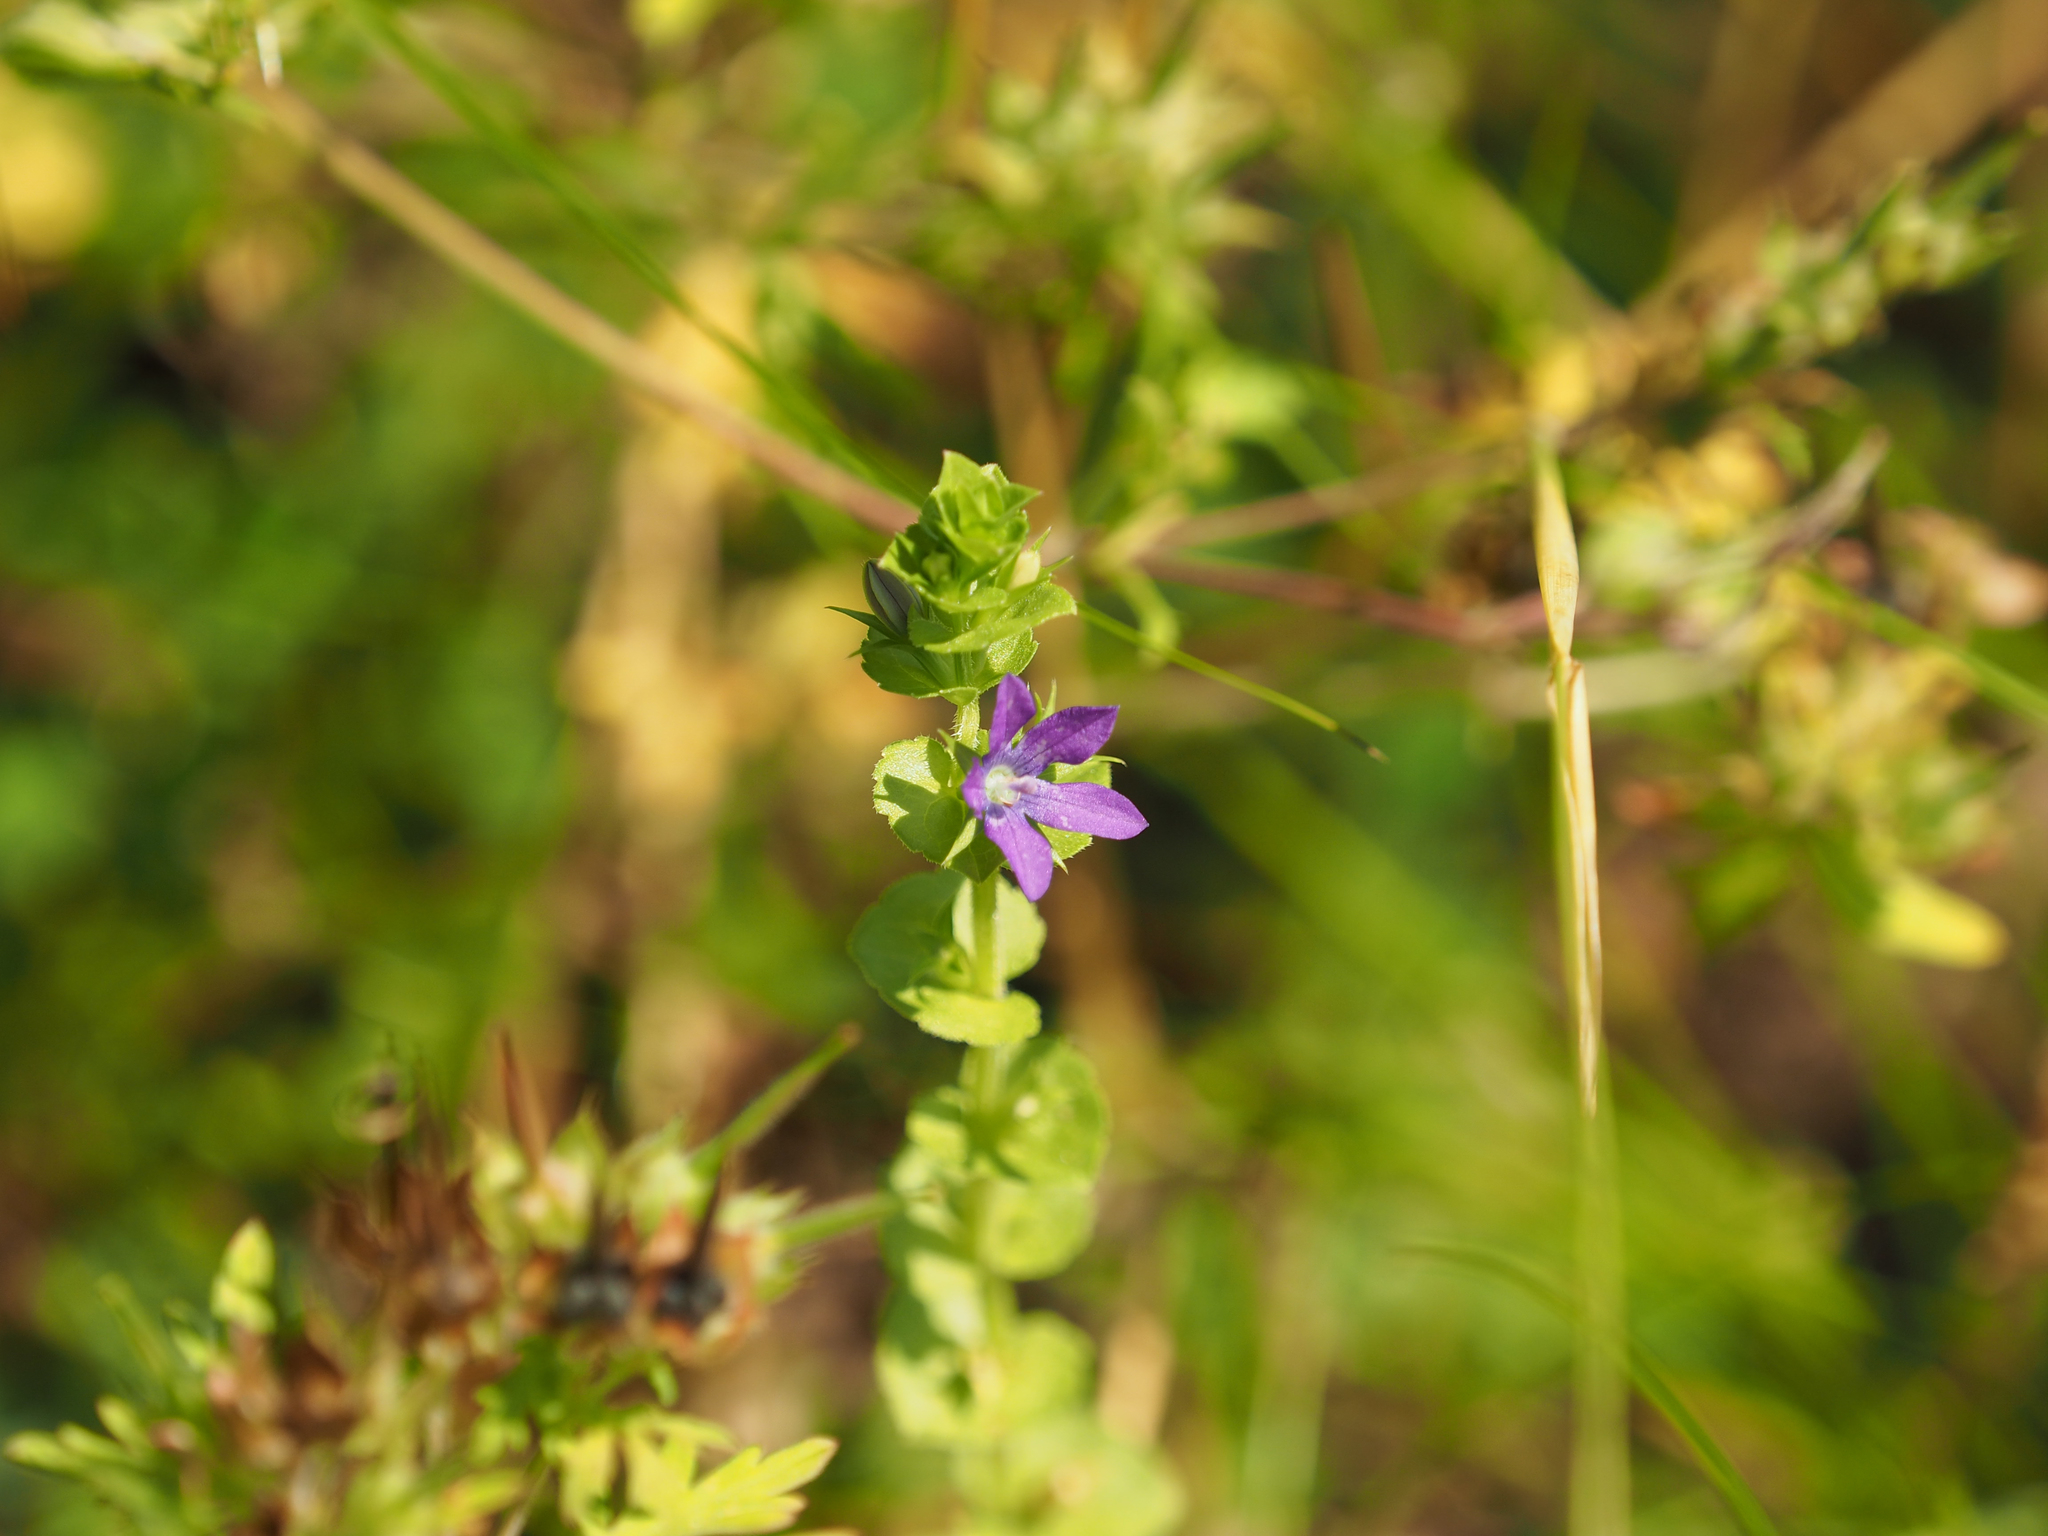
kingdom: Plantae
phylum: Tracheophyta
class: Magnoliopsida
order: Asterales
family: Campanulaceae
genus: Triodanis
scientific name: Triodanis perfoliata
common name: Clasping venus' looking-glass
